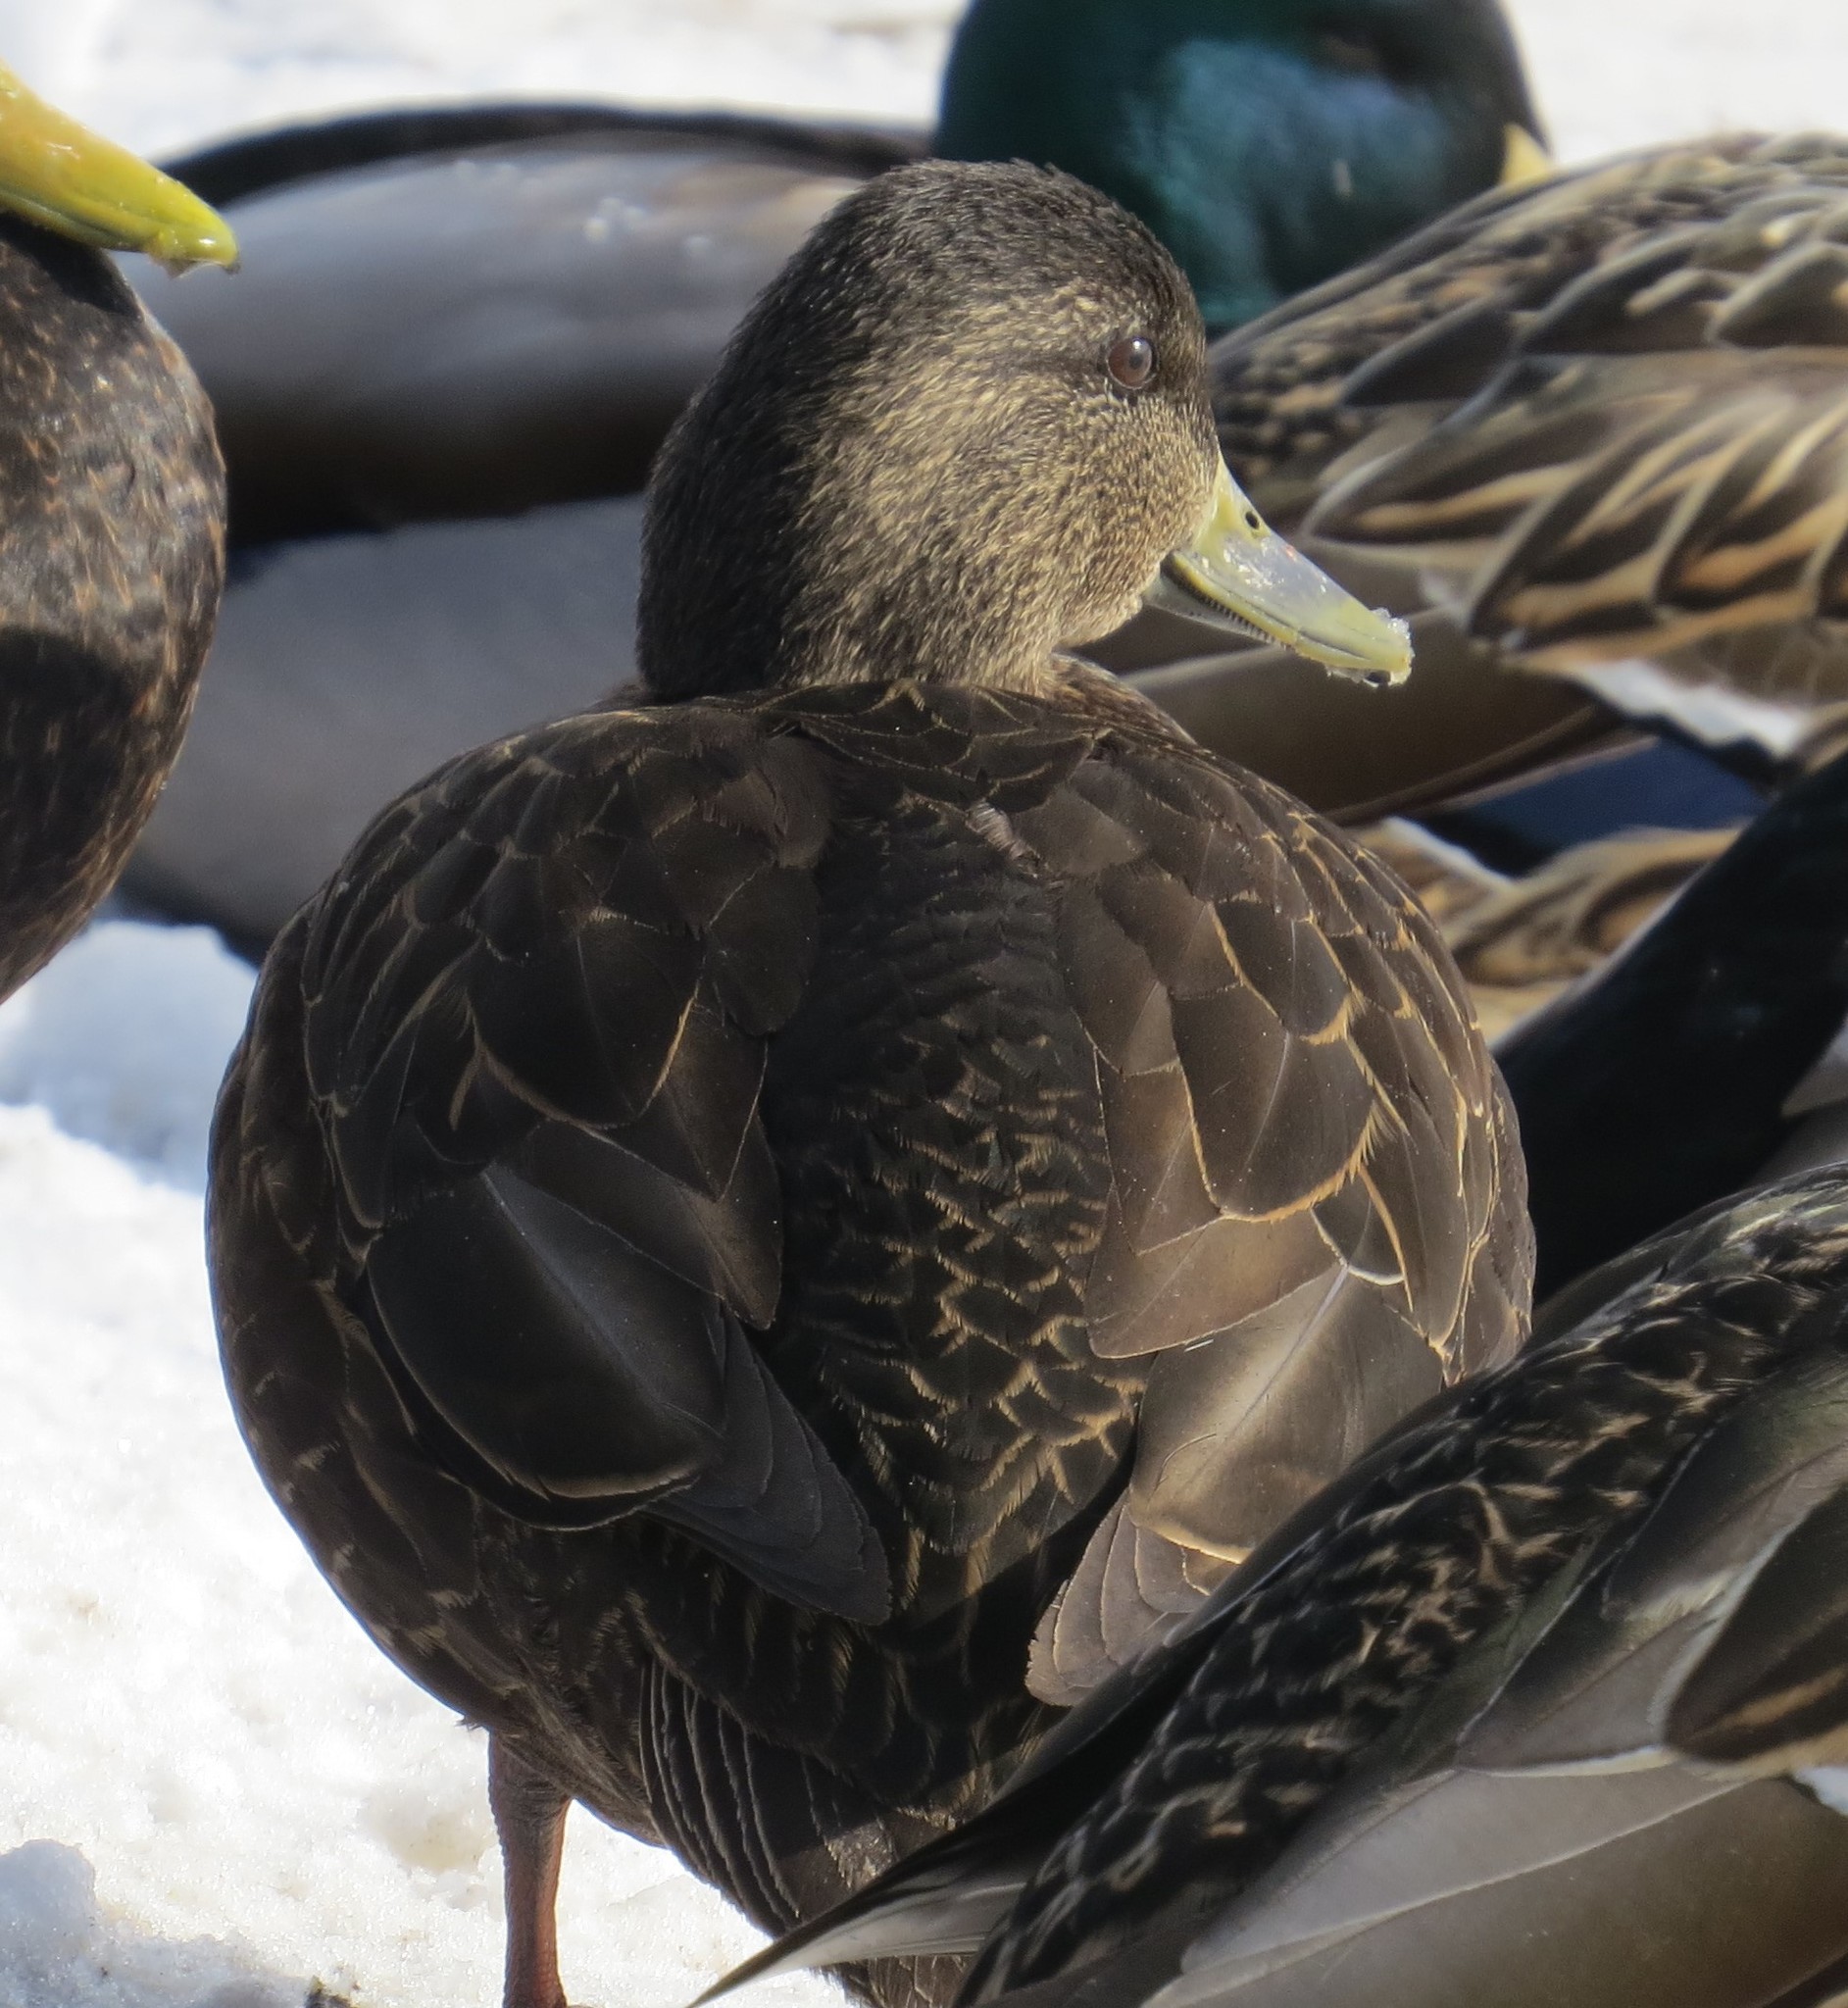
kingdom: Animalia
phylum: Chordata
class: Aves
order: Anseriformes
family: Anatidae
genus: Anas
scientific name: Anas rubripes
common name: American black duck
